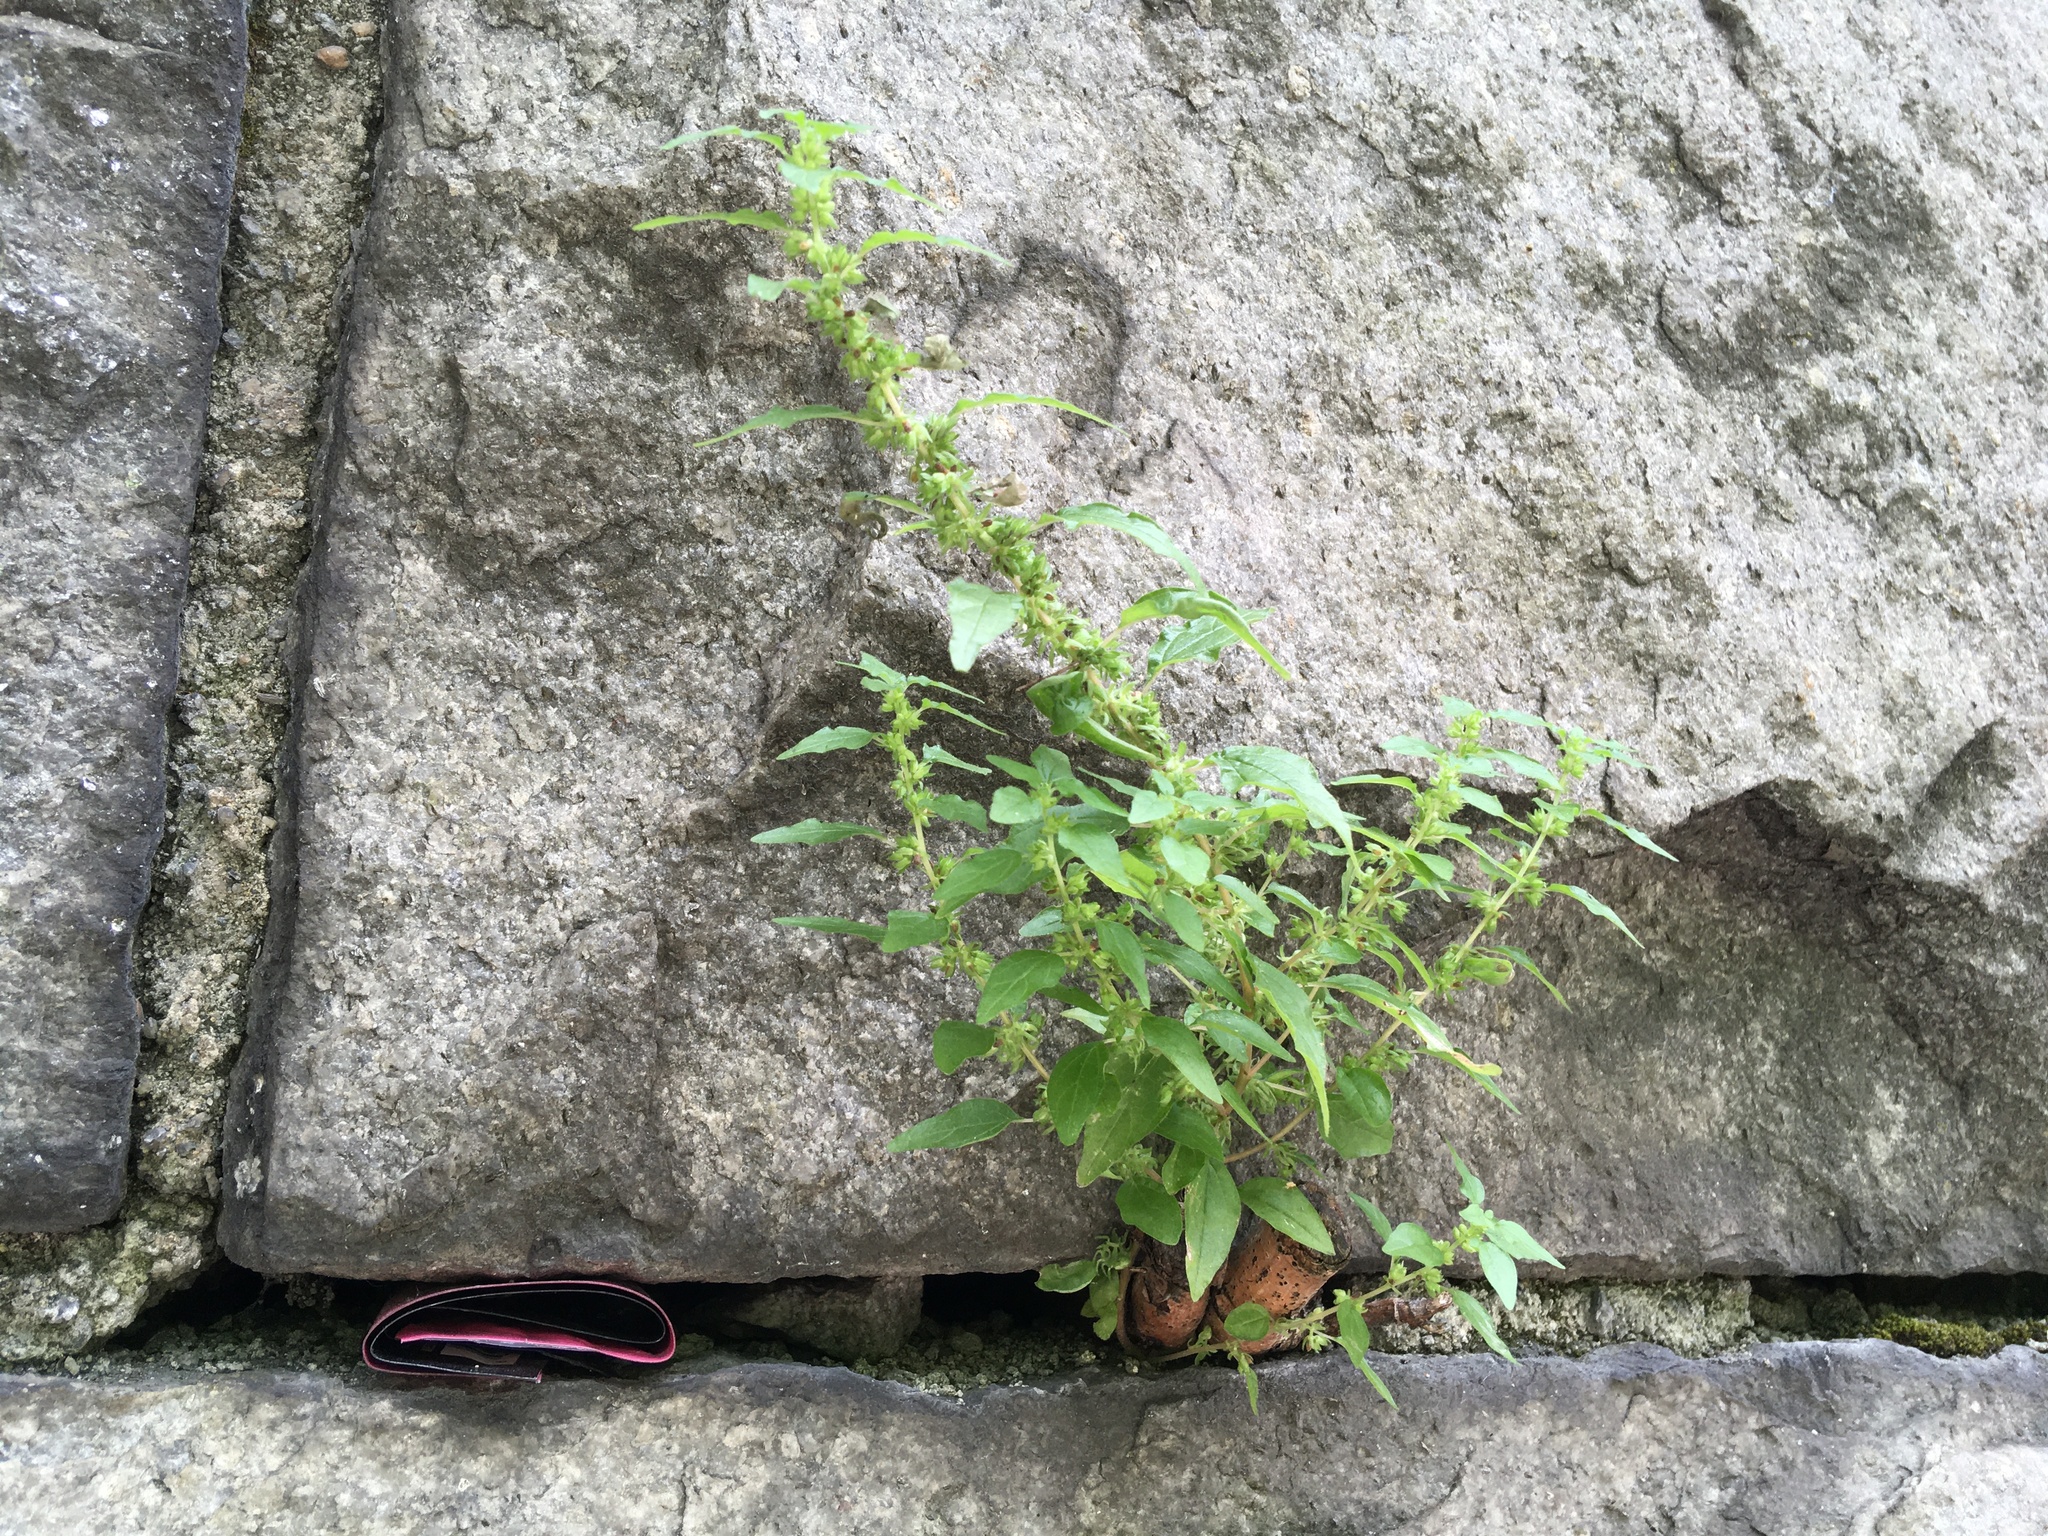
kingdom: Plantae
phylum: Tracheophyta
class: Magnoliopsida
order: Rosales
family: Urticaceae
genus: Parietaria
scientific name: Parietaria pensylvanica
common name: Pennsylvania pellitory
